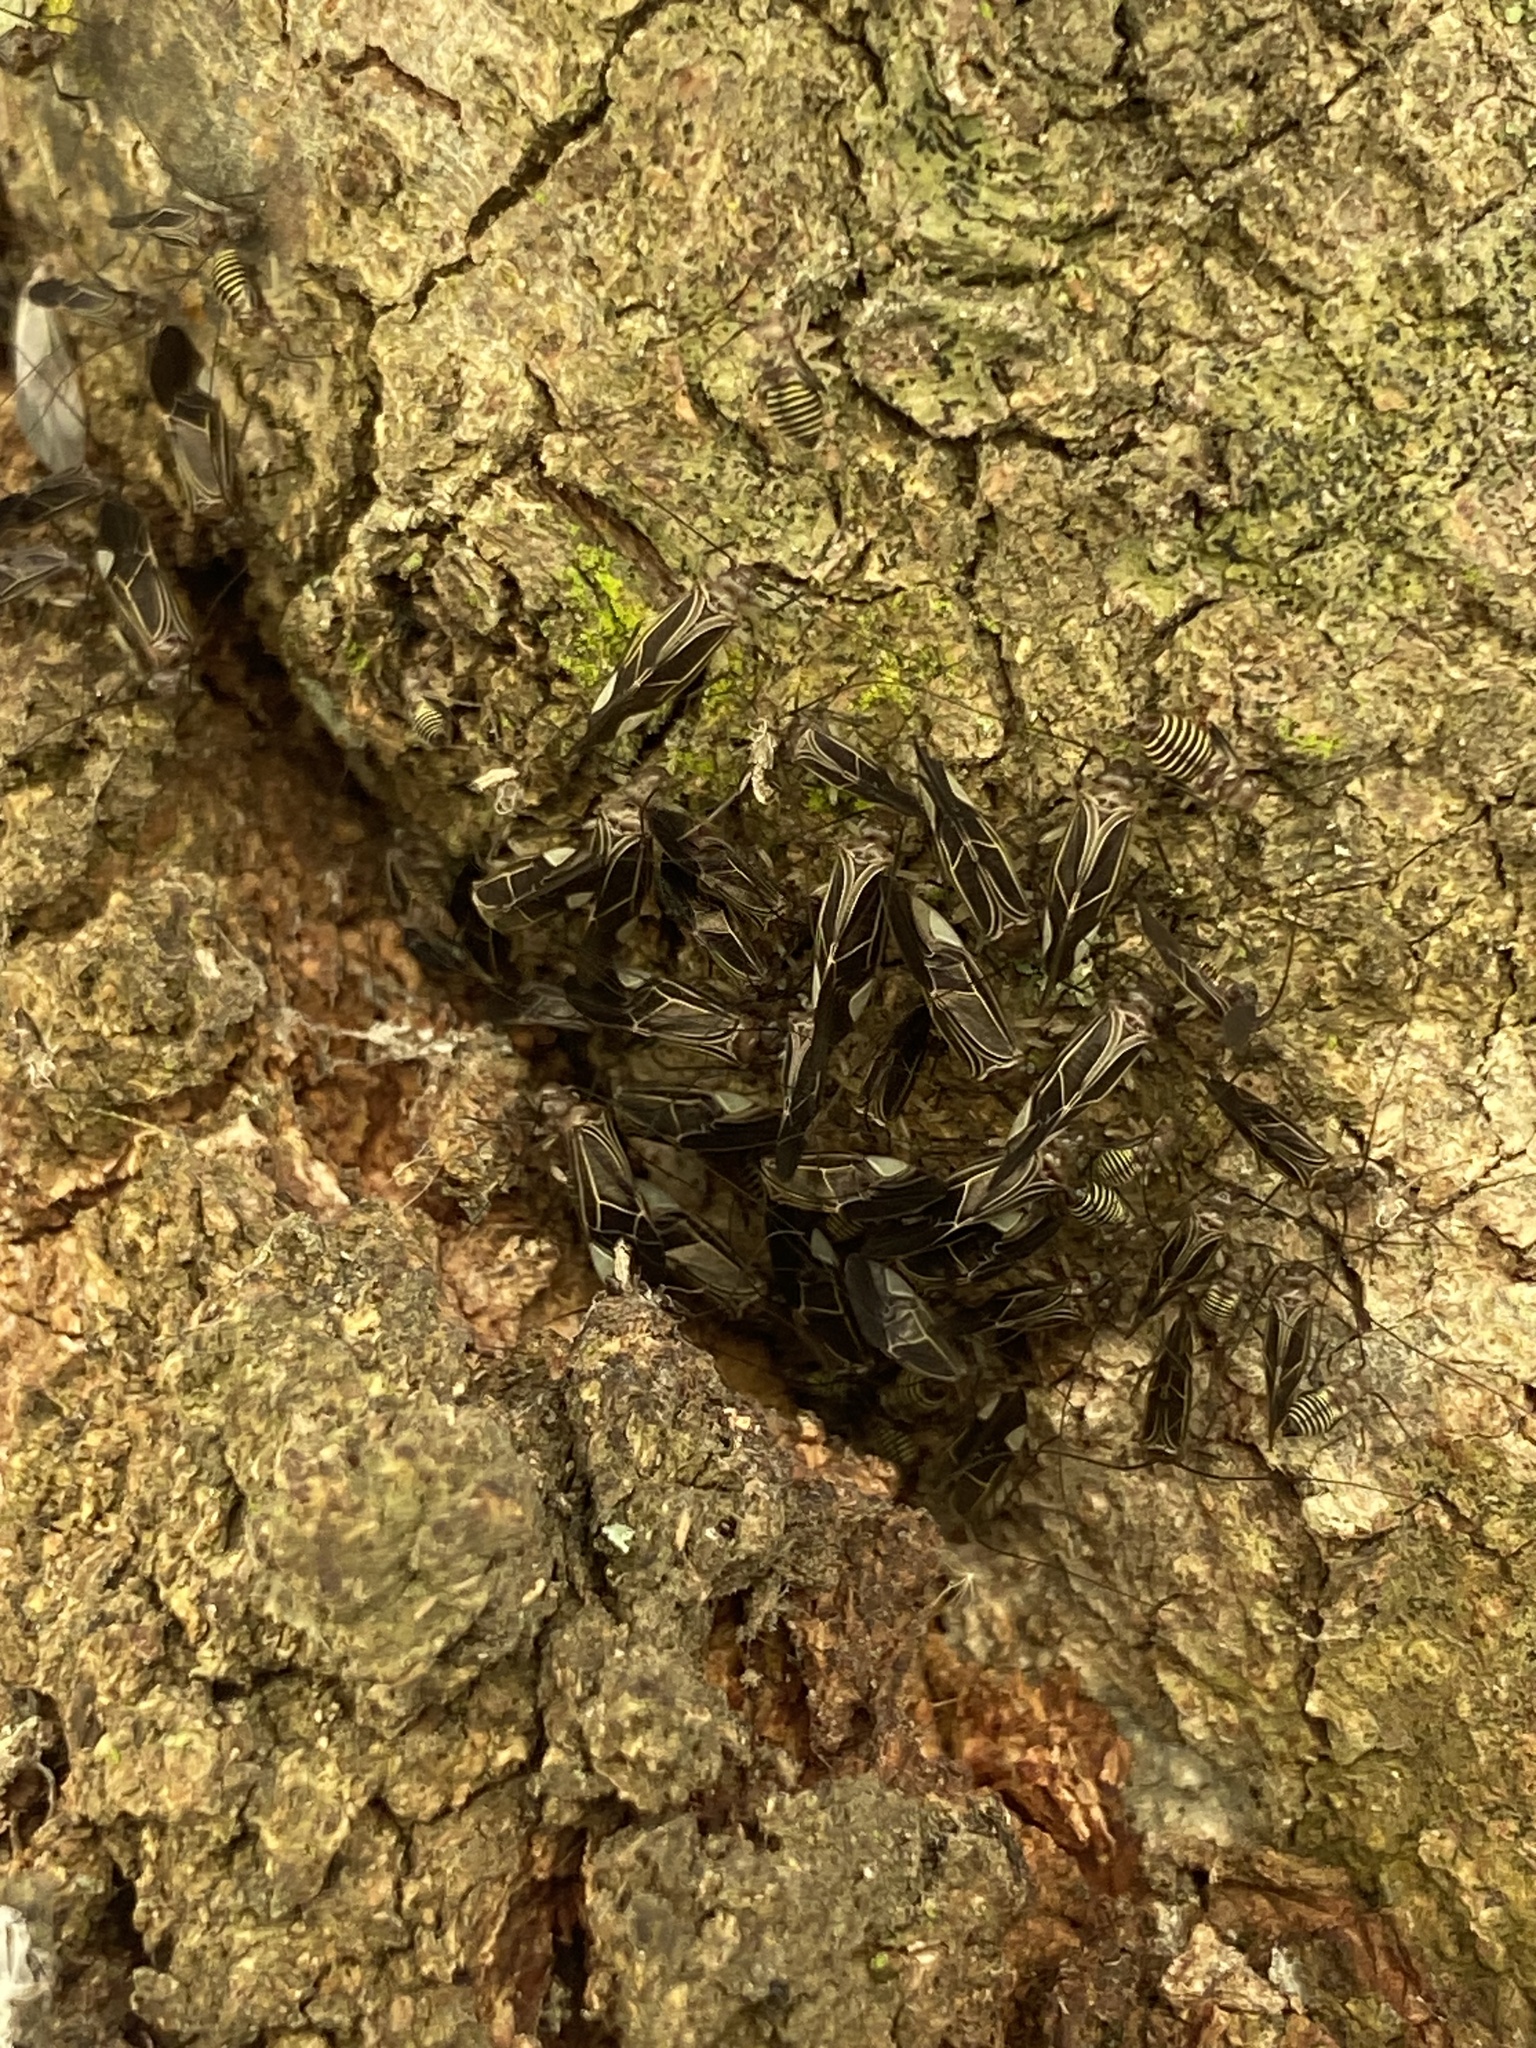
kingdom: Animalia
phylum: Arthropoda
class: Insecta
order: Psocodea
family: Psocidae
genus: Cerastipsocus
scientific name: Cerastipsocus venosus
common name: Tree cattle
